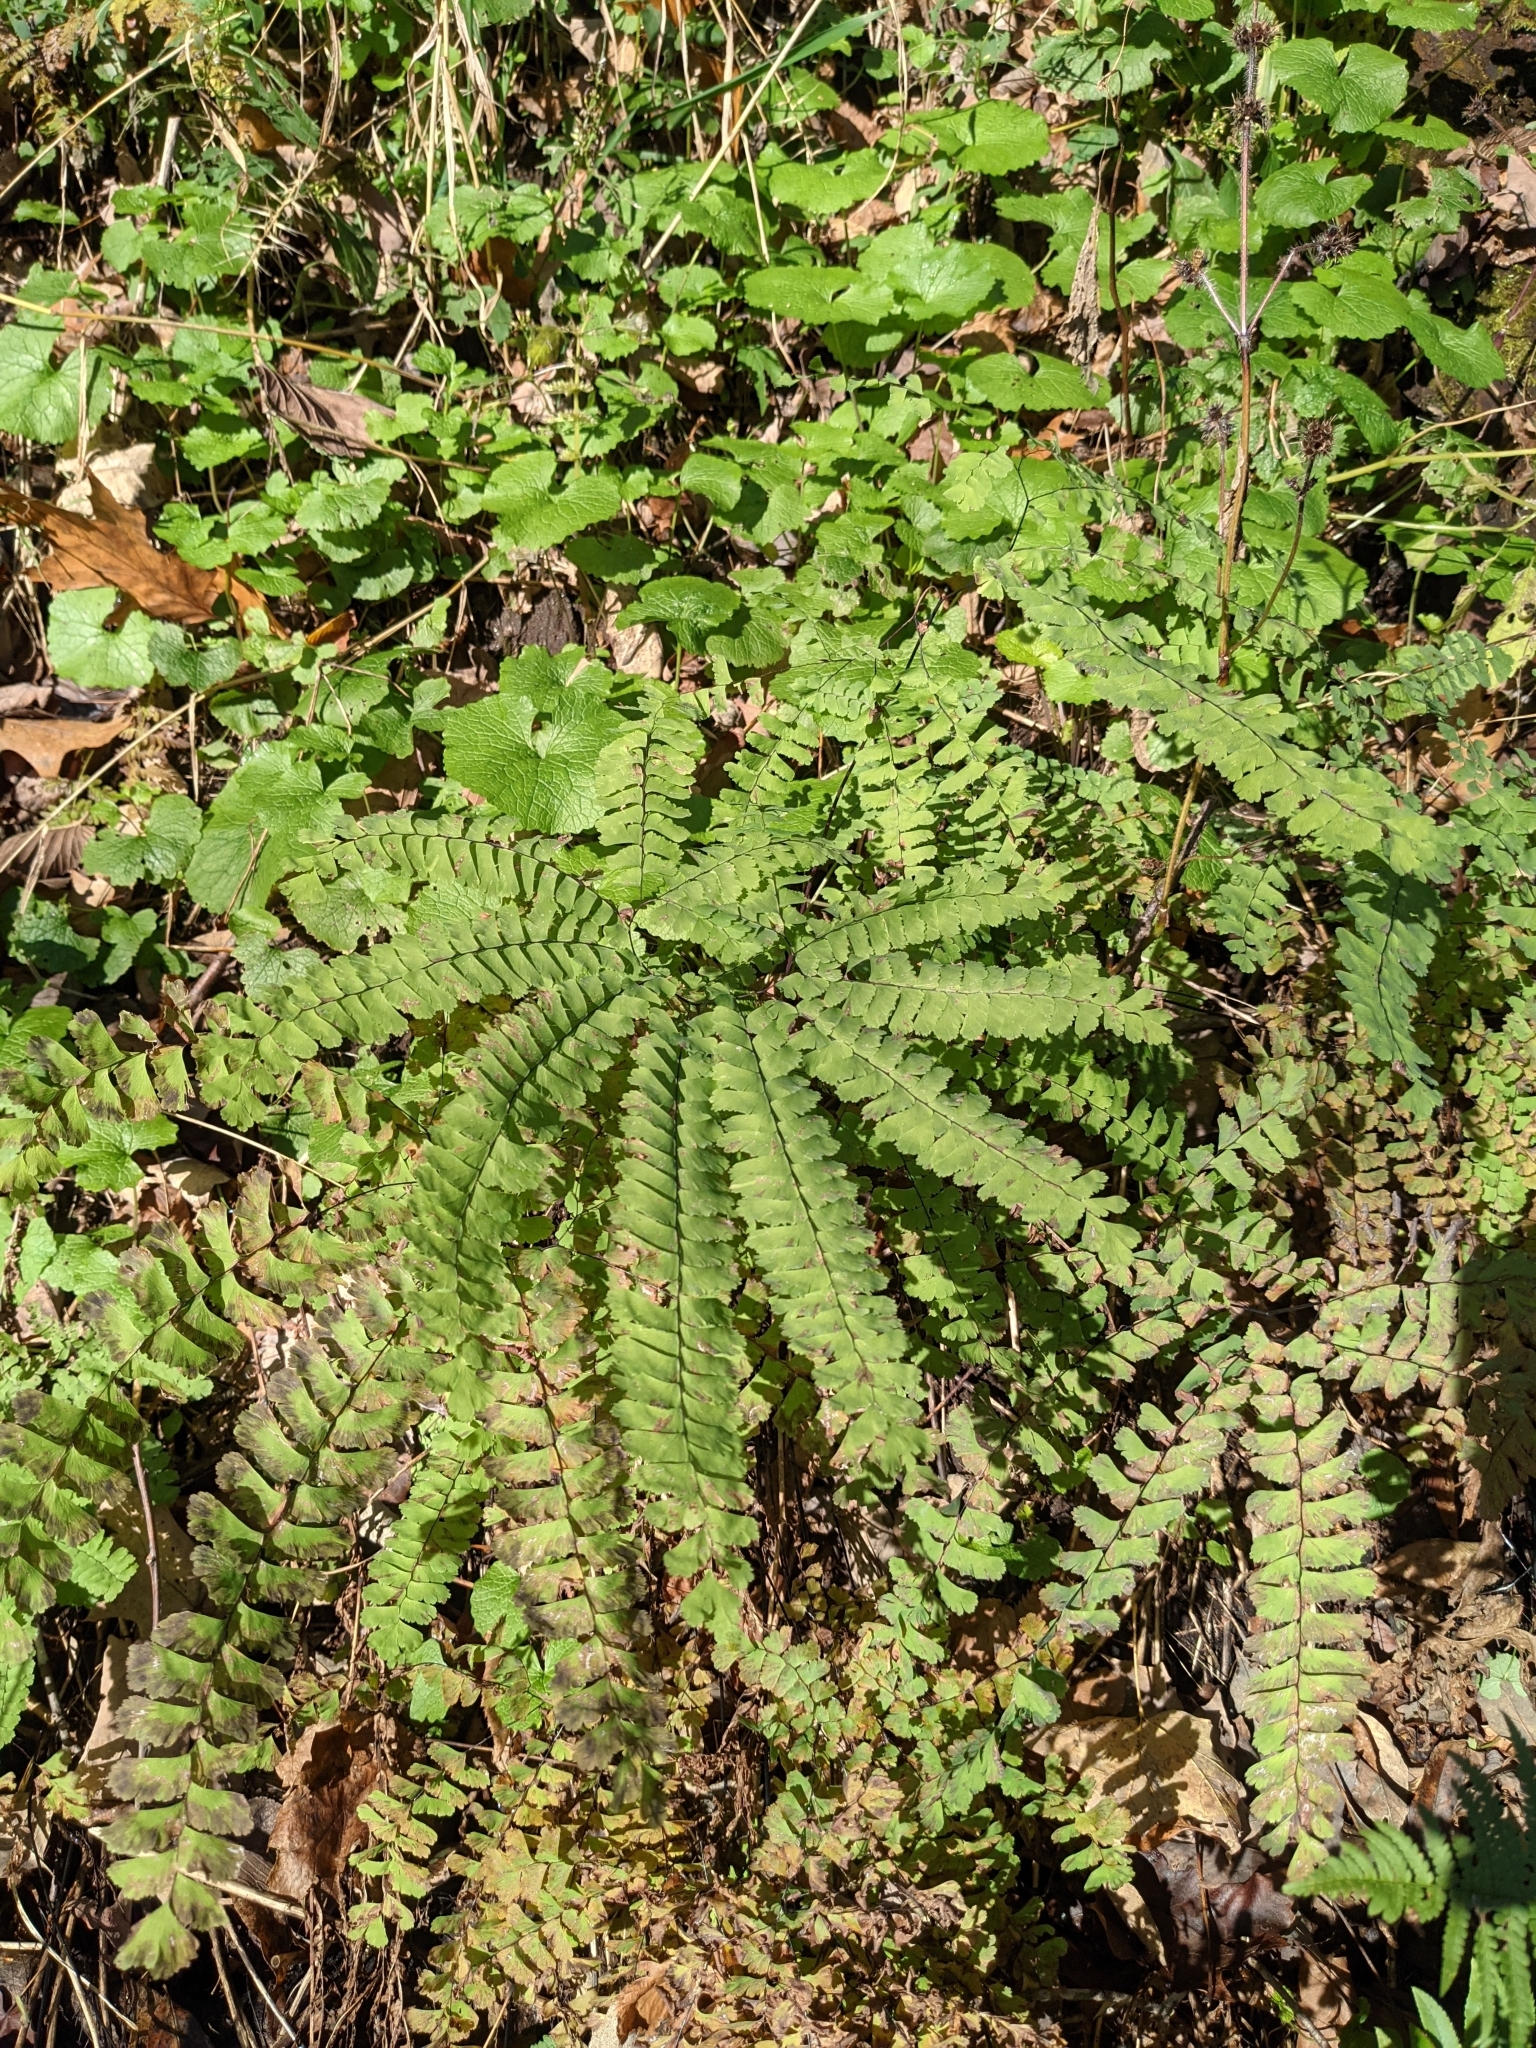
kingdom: Plantae
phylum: Tracheophyta
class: Polypodiopsida
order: Polypodiales
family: Pteridaceae
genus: Adiantum
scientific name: Adiantum pedatum
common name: Five-finger fern
